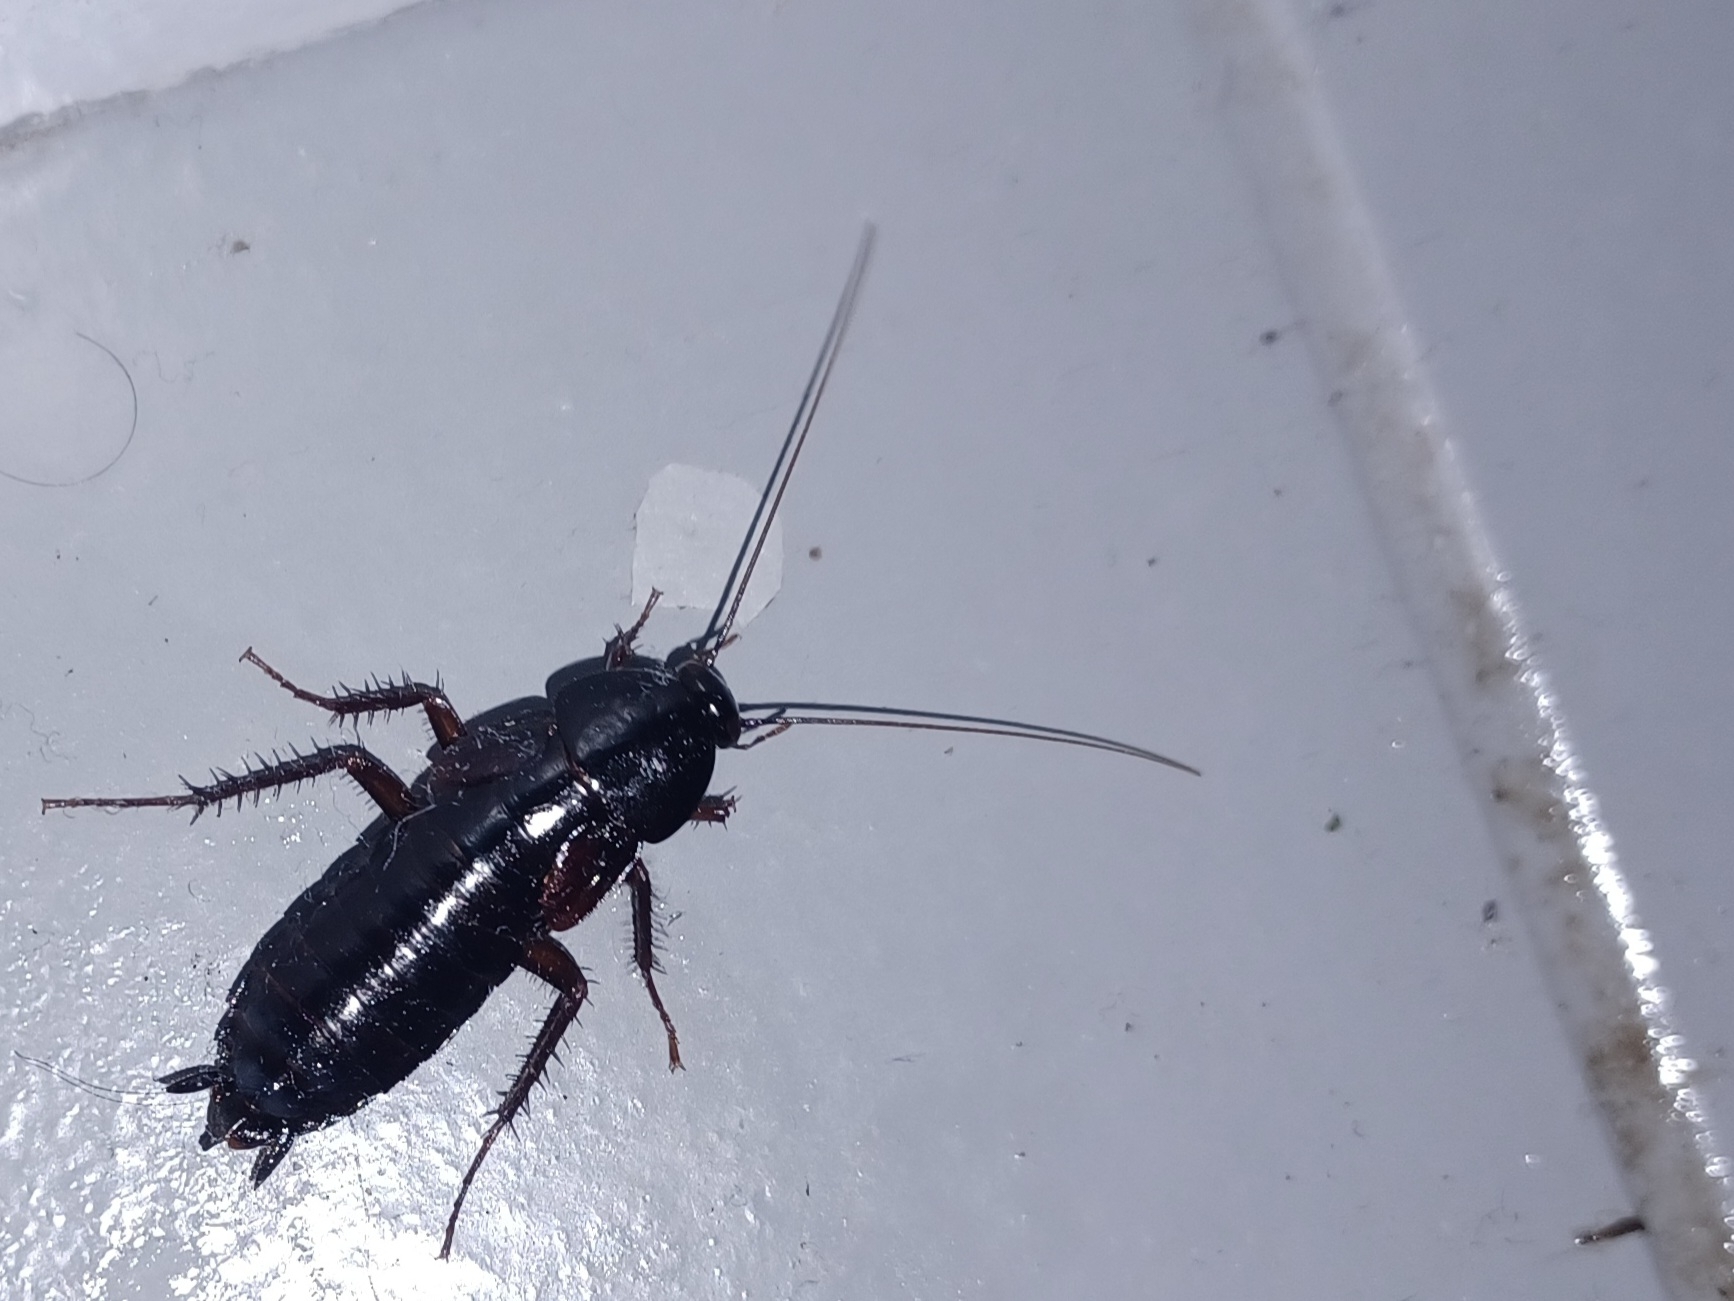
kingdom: Animalia
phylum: Arthropoda
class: Insecta
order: Blattodea
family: Blattidae
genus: Blatta
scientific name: Blatta orientalis
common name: Oriental cockroach
